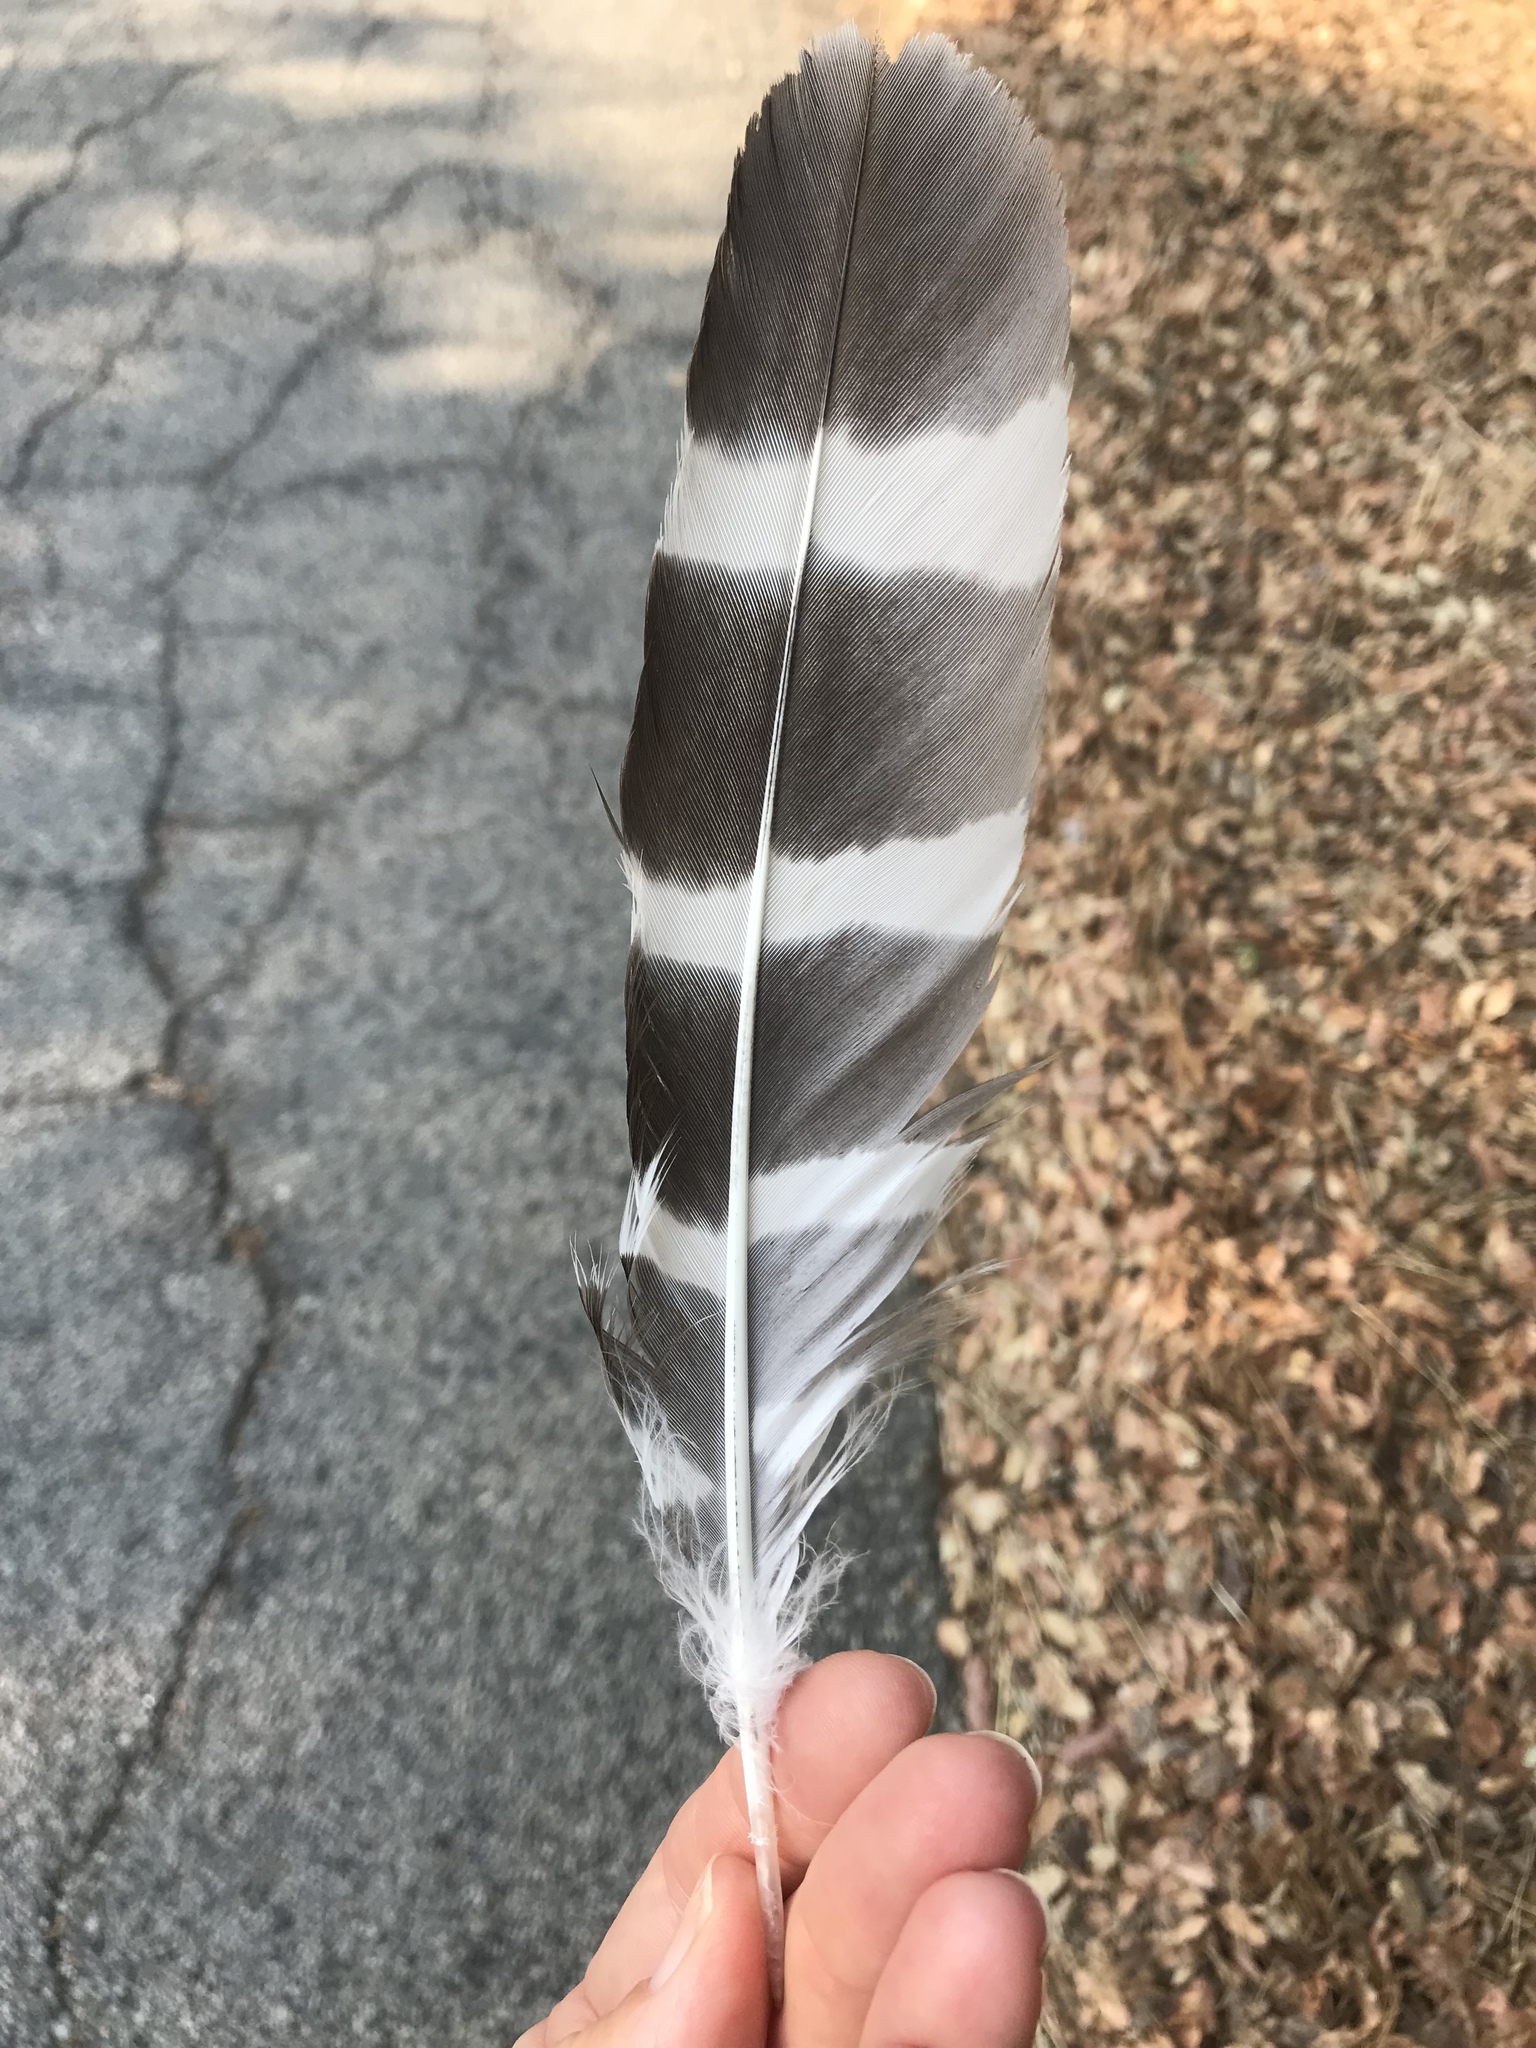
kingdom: Animalia
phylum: Chordata
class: Aves
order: Accipitriformes
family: Accipitridae
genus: Buteo
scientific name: Buteo lineatus
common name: Red-shouldered hawk
